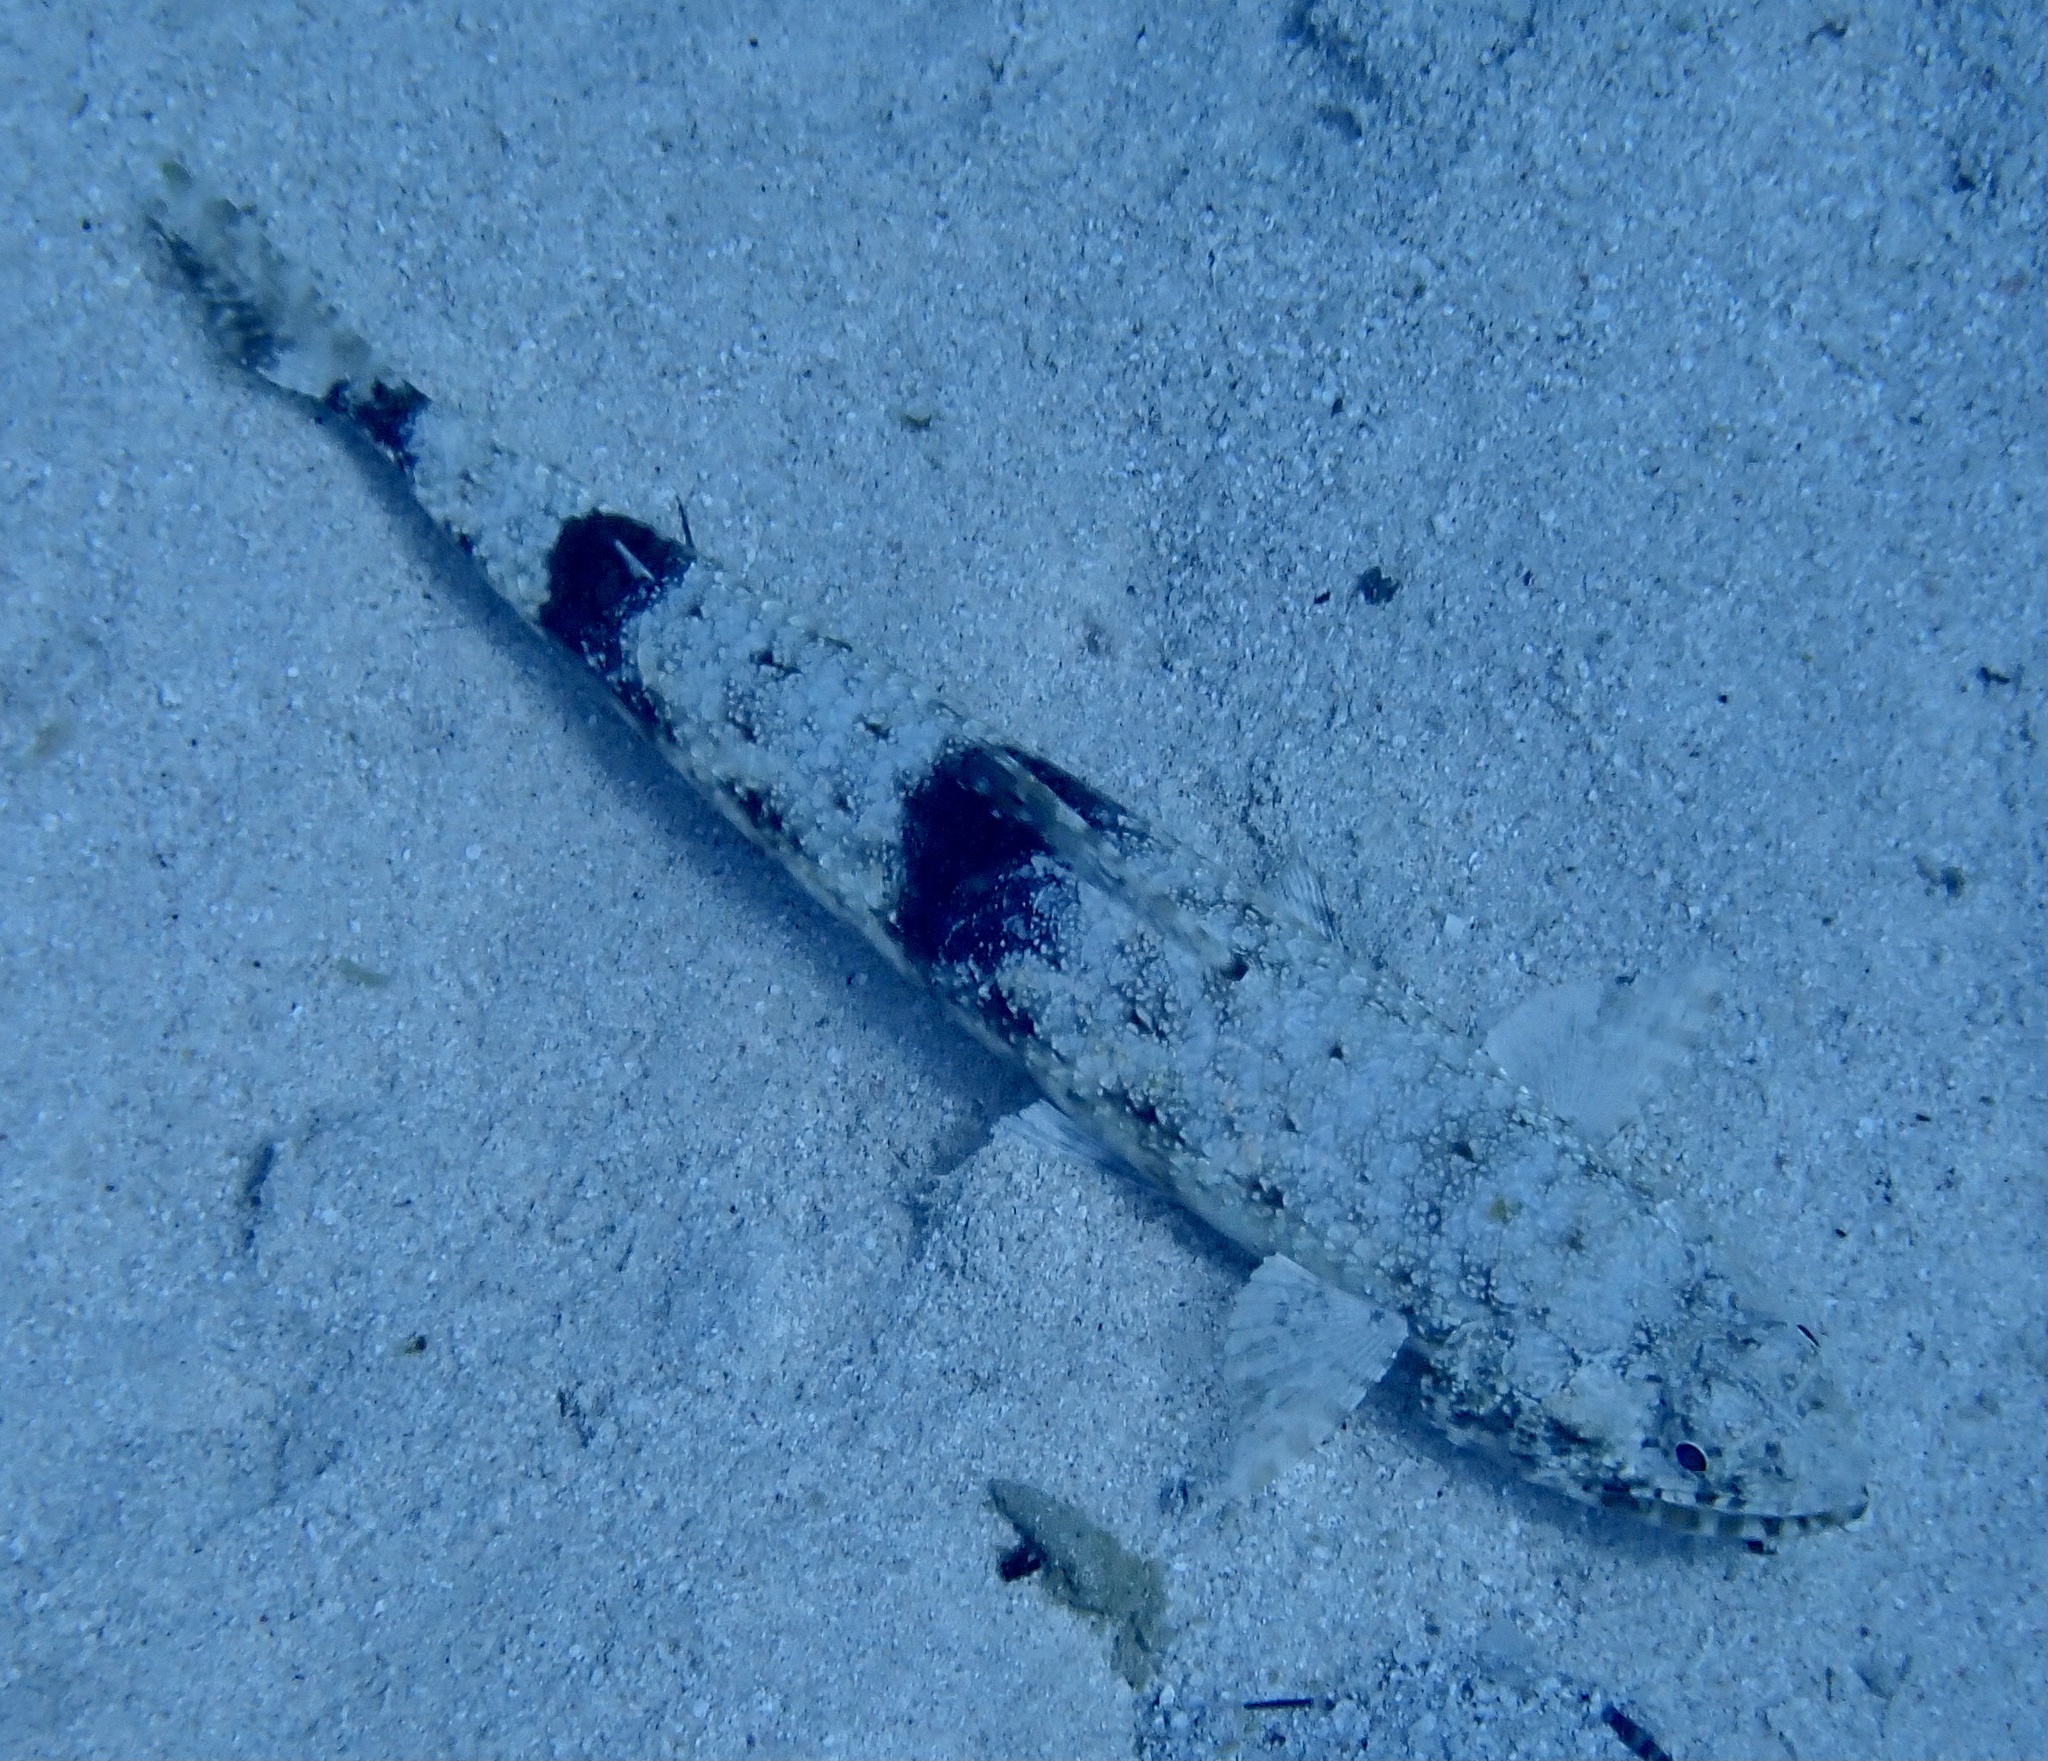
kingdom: Animalia
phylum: Chordata
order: Aulopiformes
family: Synodontidae
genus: Saurida
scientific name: Saurida gracilis
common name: Slender lizardfish
